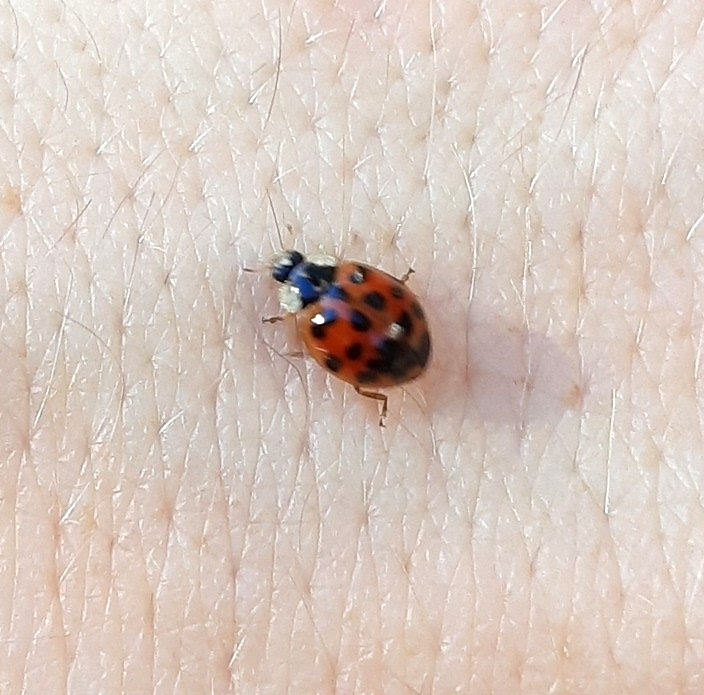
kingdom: Animalia
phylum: Arthropoda
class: Insecta
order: Coleoptera
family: Coccinellidae
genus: Harmonia
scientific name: Harmonia axyridis
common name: Harlequin ladybird
